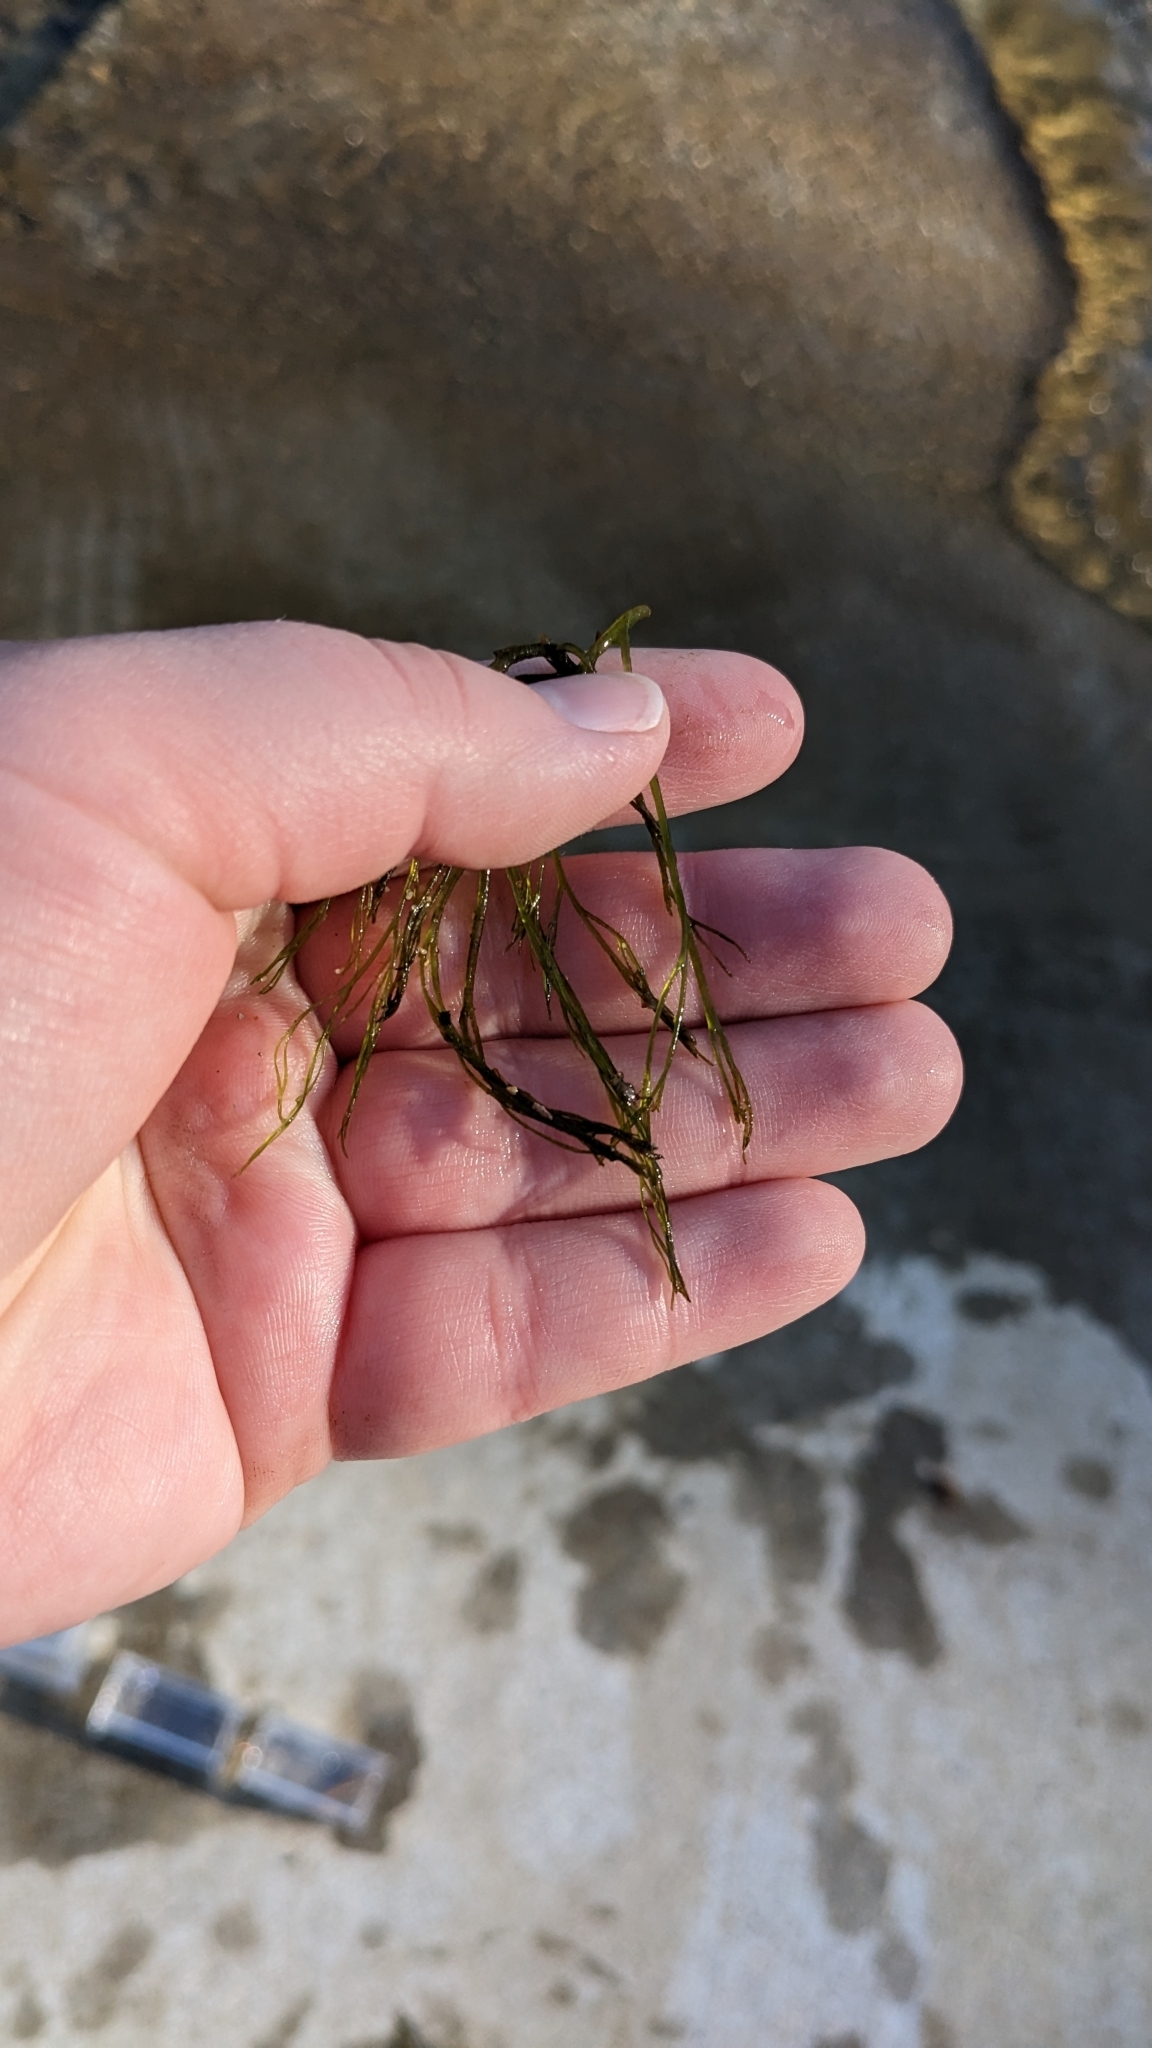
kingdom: Plantae
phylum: Tracheophyta
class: Magnoliopsida
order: Malpighiales
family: Podostemaceae
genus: Podostemum
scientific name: Podostemum ceratophyllum
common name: Horn-leaved riverweed
